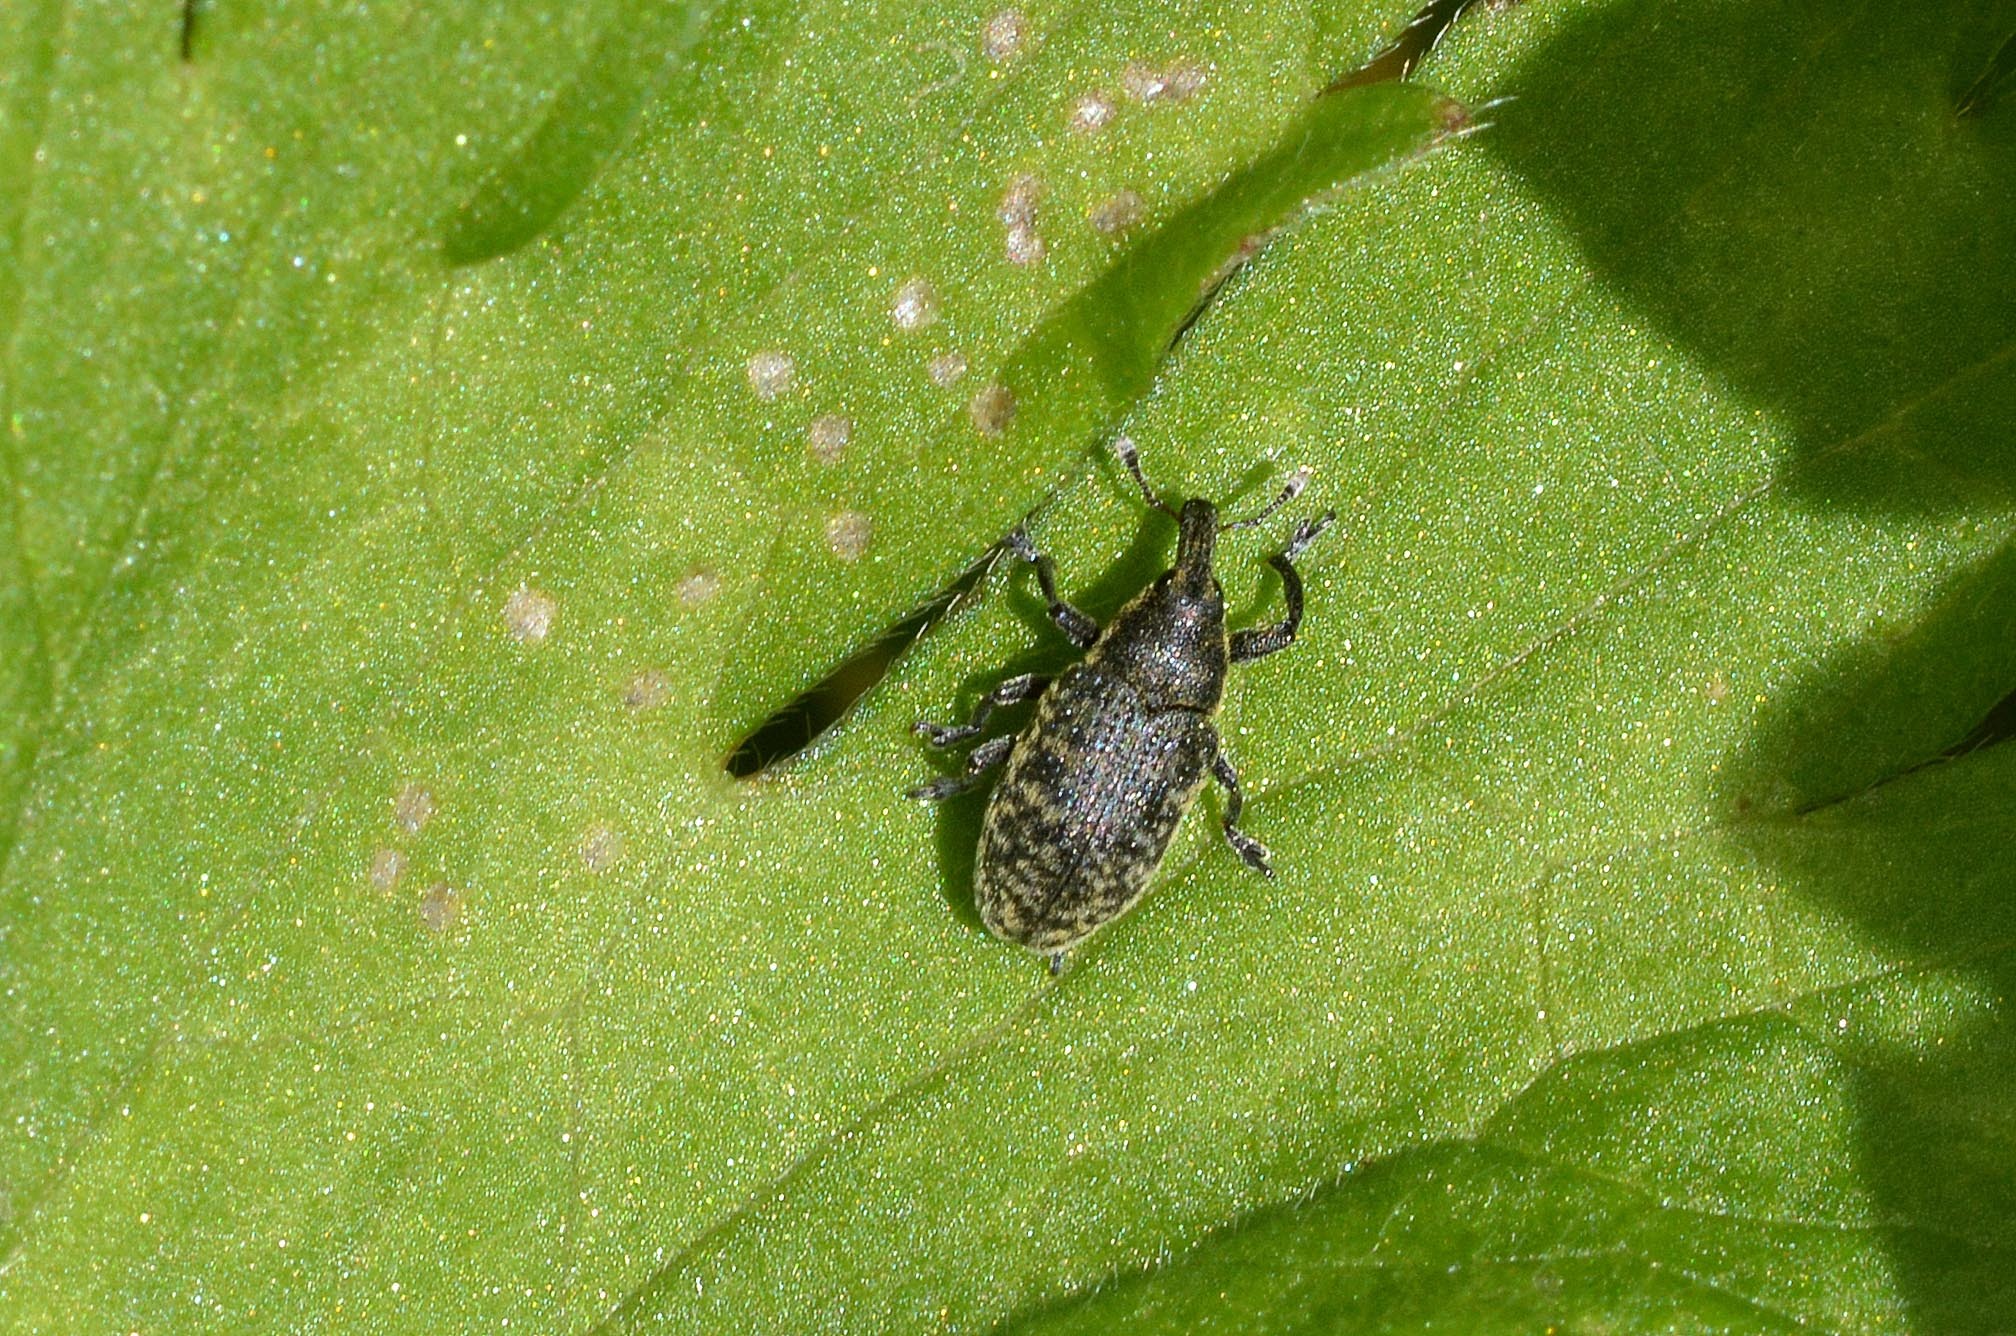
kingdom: Animalia
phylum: Arthropoda
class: Insecta
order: Coleoptera
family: Curculionidae
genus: Larinus
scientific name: Larinus carlinae
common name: Weevil
